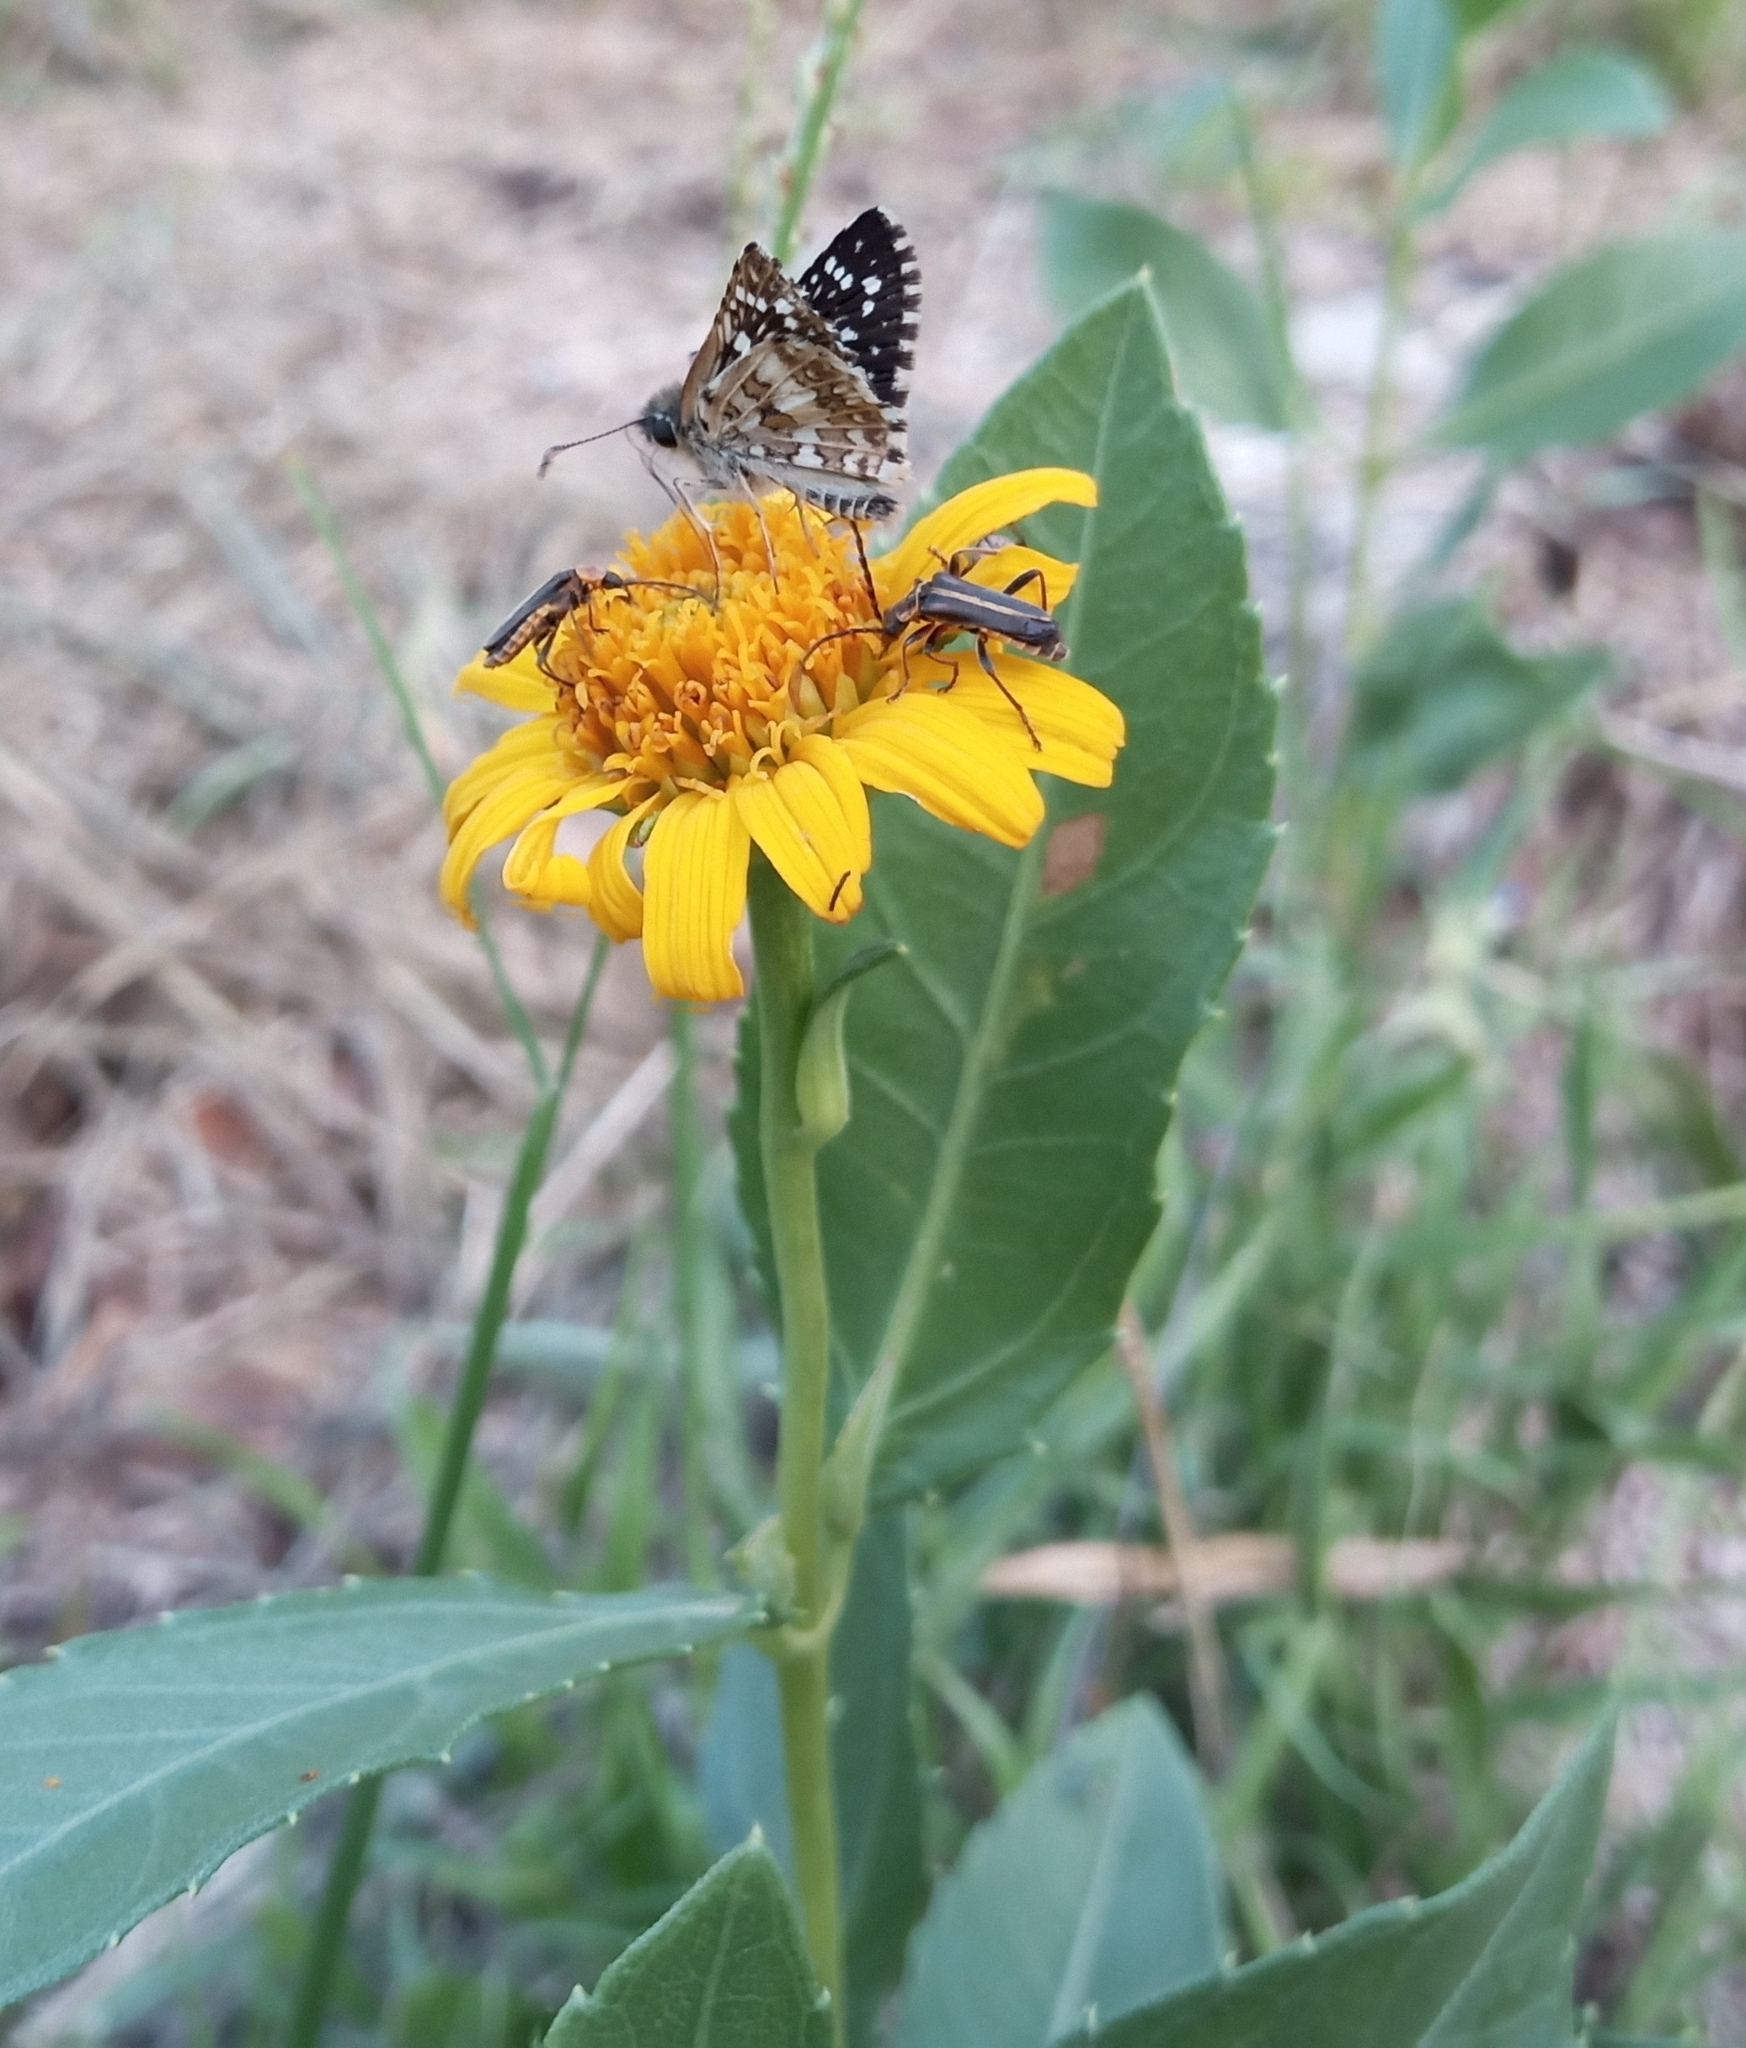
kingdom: Animalia
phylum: Arthropoda
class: Insecta
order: Lepidoptera
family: Hesperiidae
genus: Burnsius
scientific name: Burnsius orcynoides
